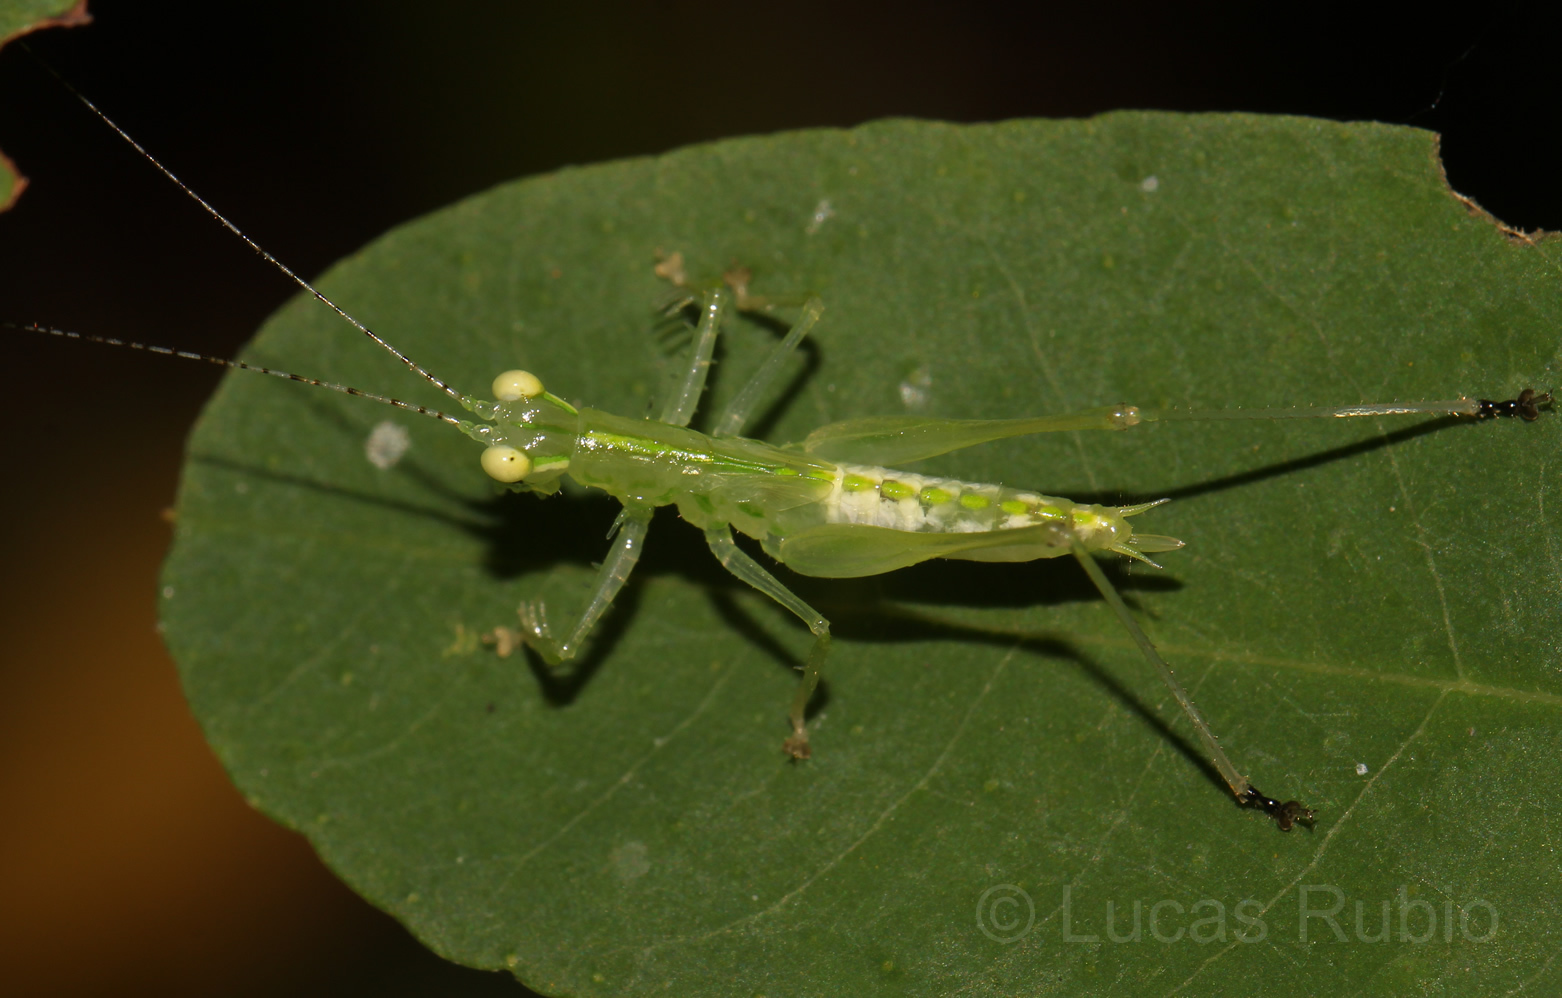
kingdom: Animalia
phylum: Arthropoda
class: Insecta
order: Orthoptera
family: Tettigoniidae
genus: Phlugis
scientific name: Phlugis proseni
